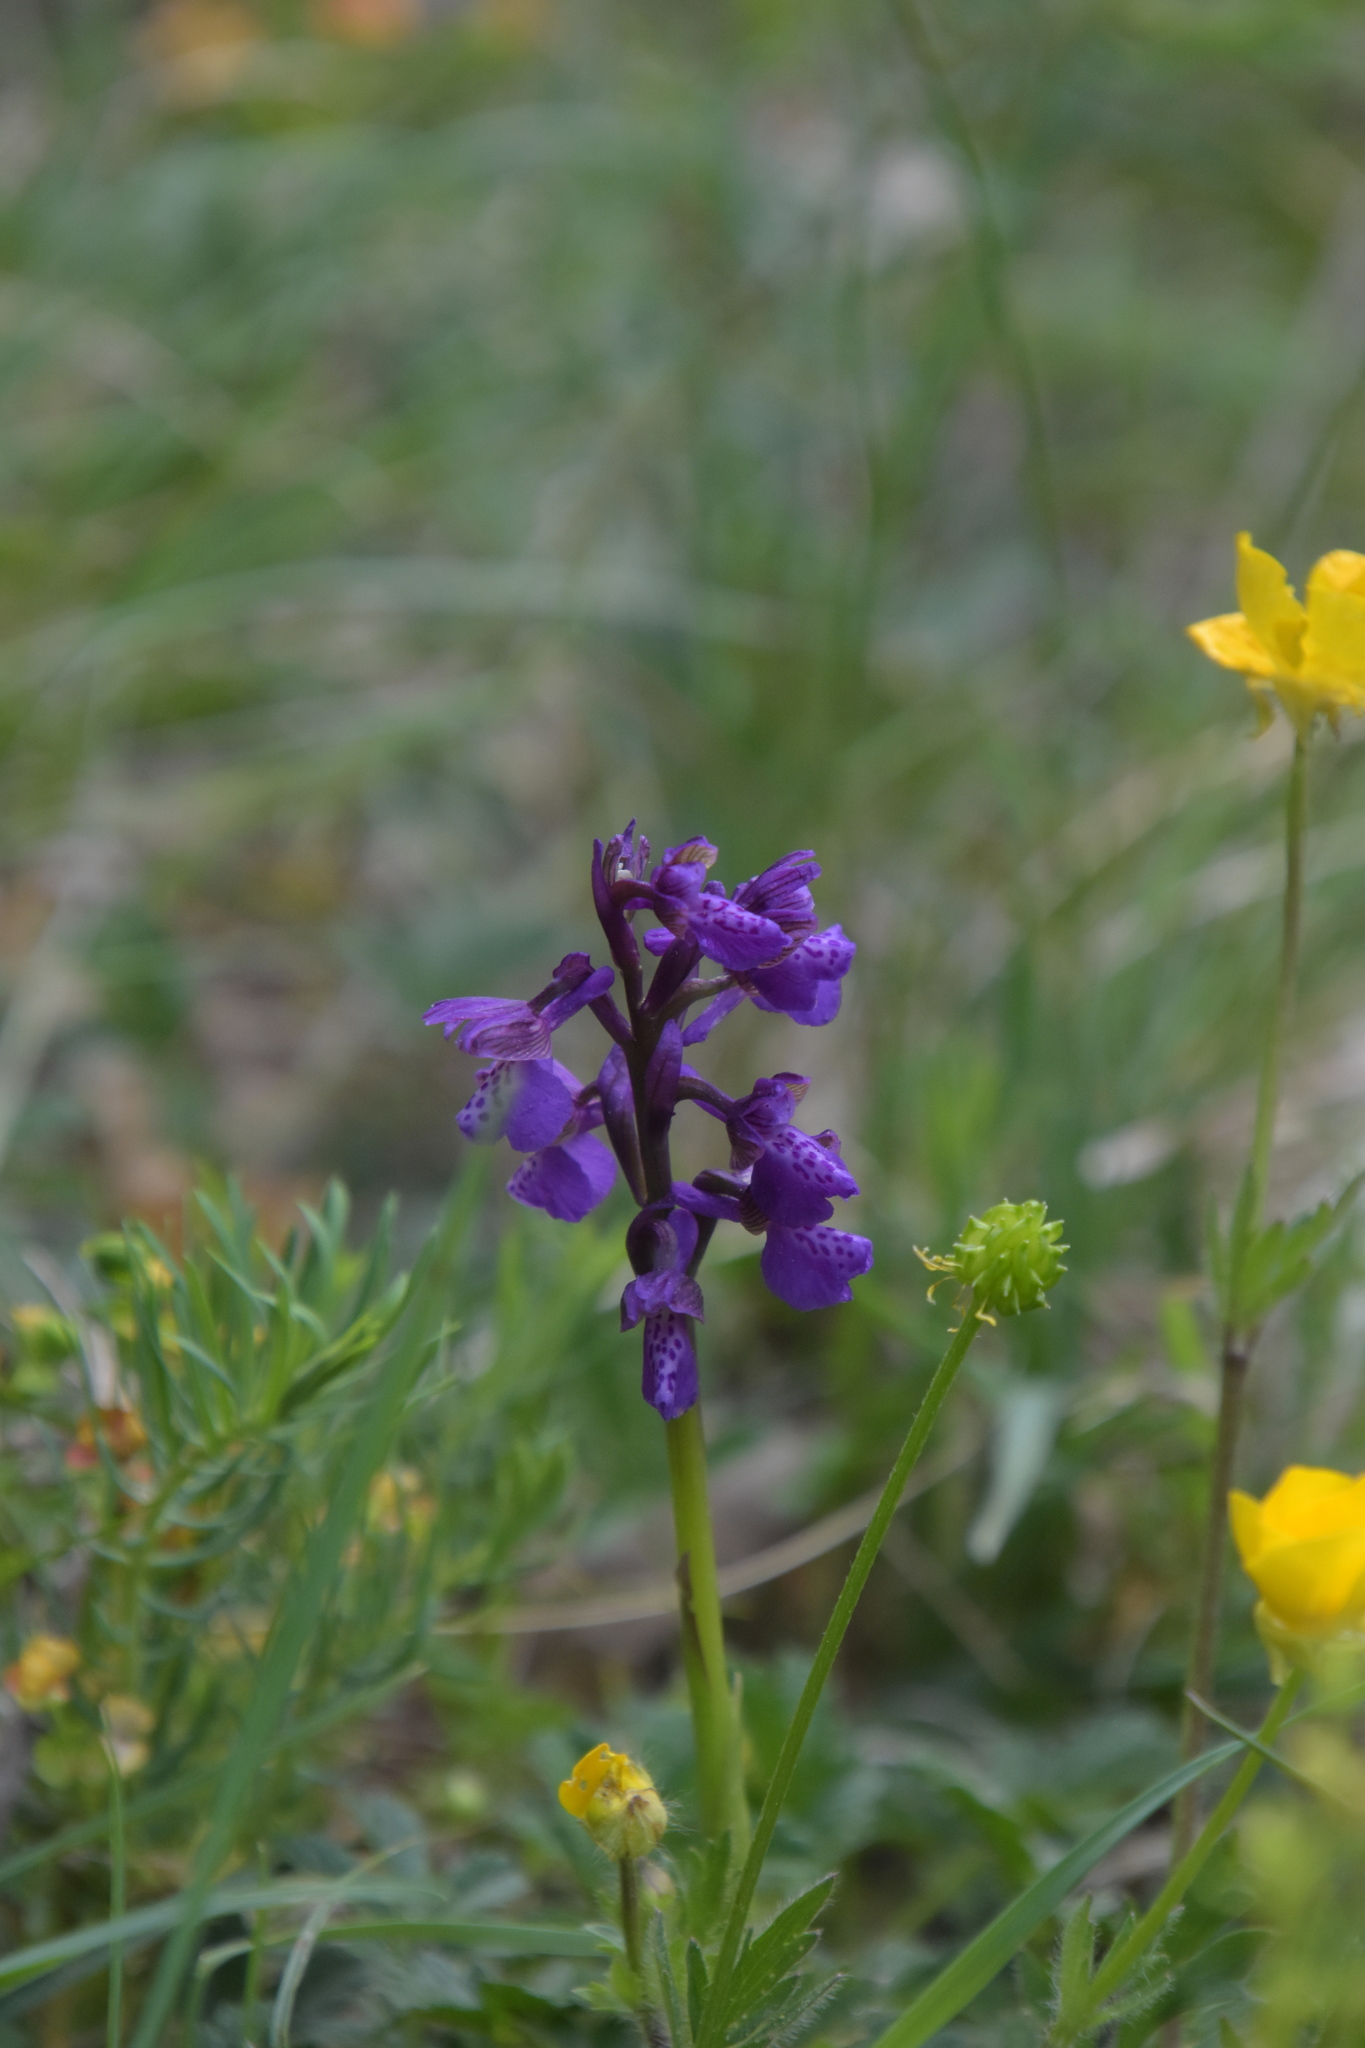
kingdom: Plantae
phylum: Tracheophyta
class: Liliopsida
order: Asparagales
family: Orchidaceae
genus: Anacamptis
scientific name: Anacamptis morio
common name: Green-winged orchid
